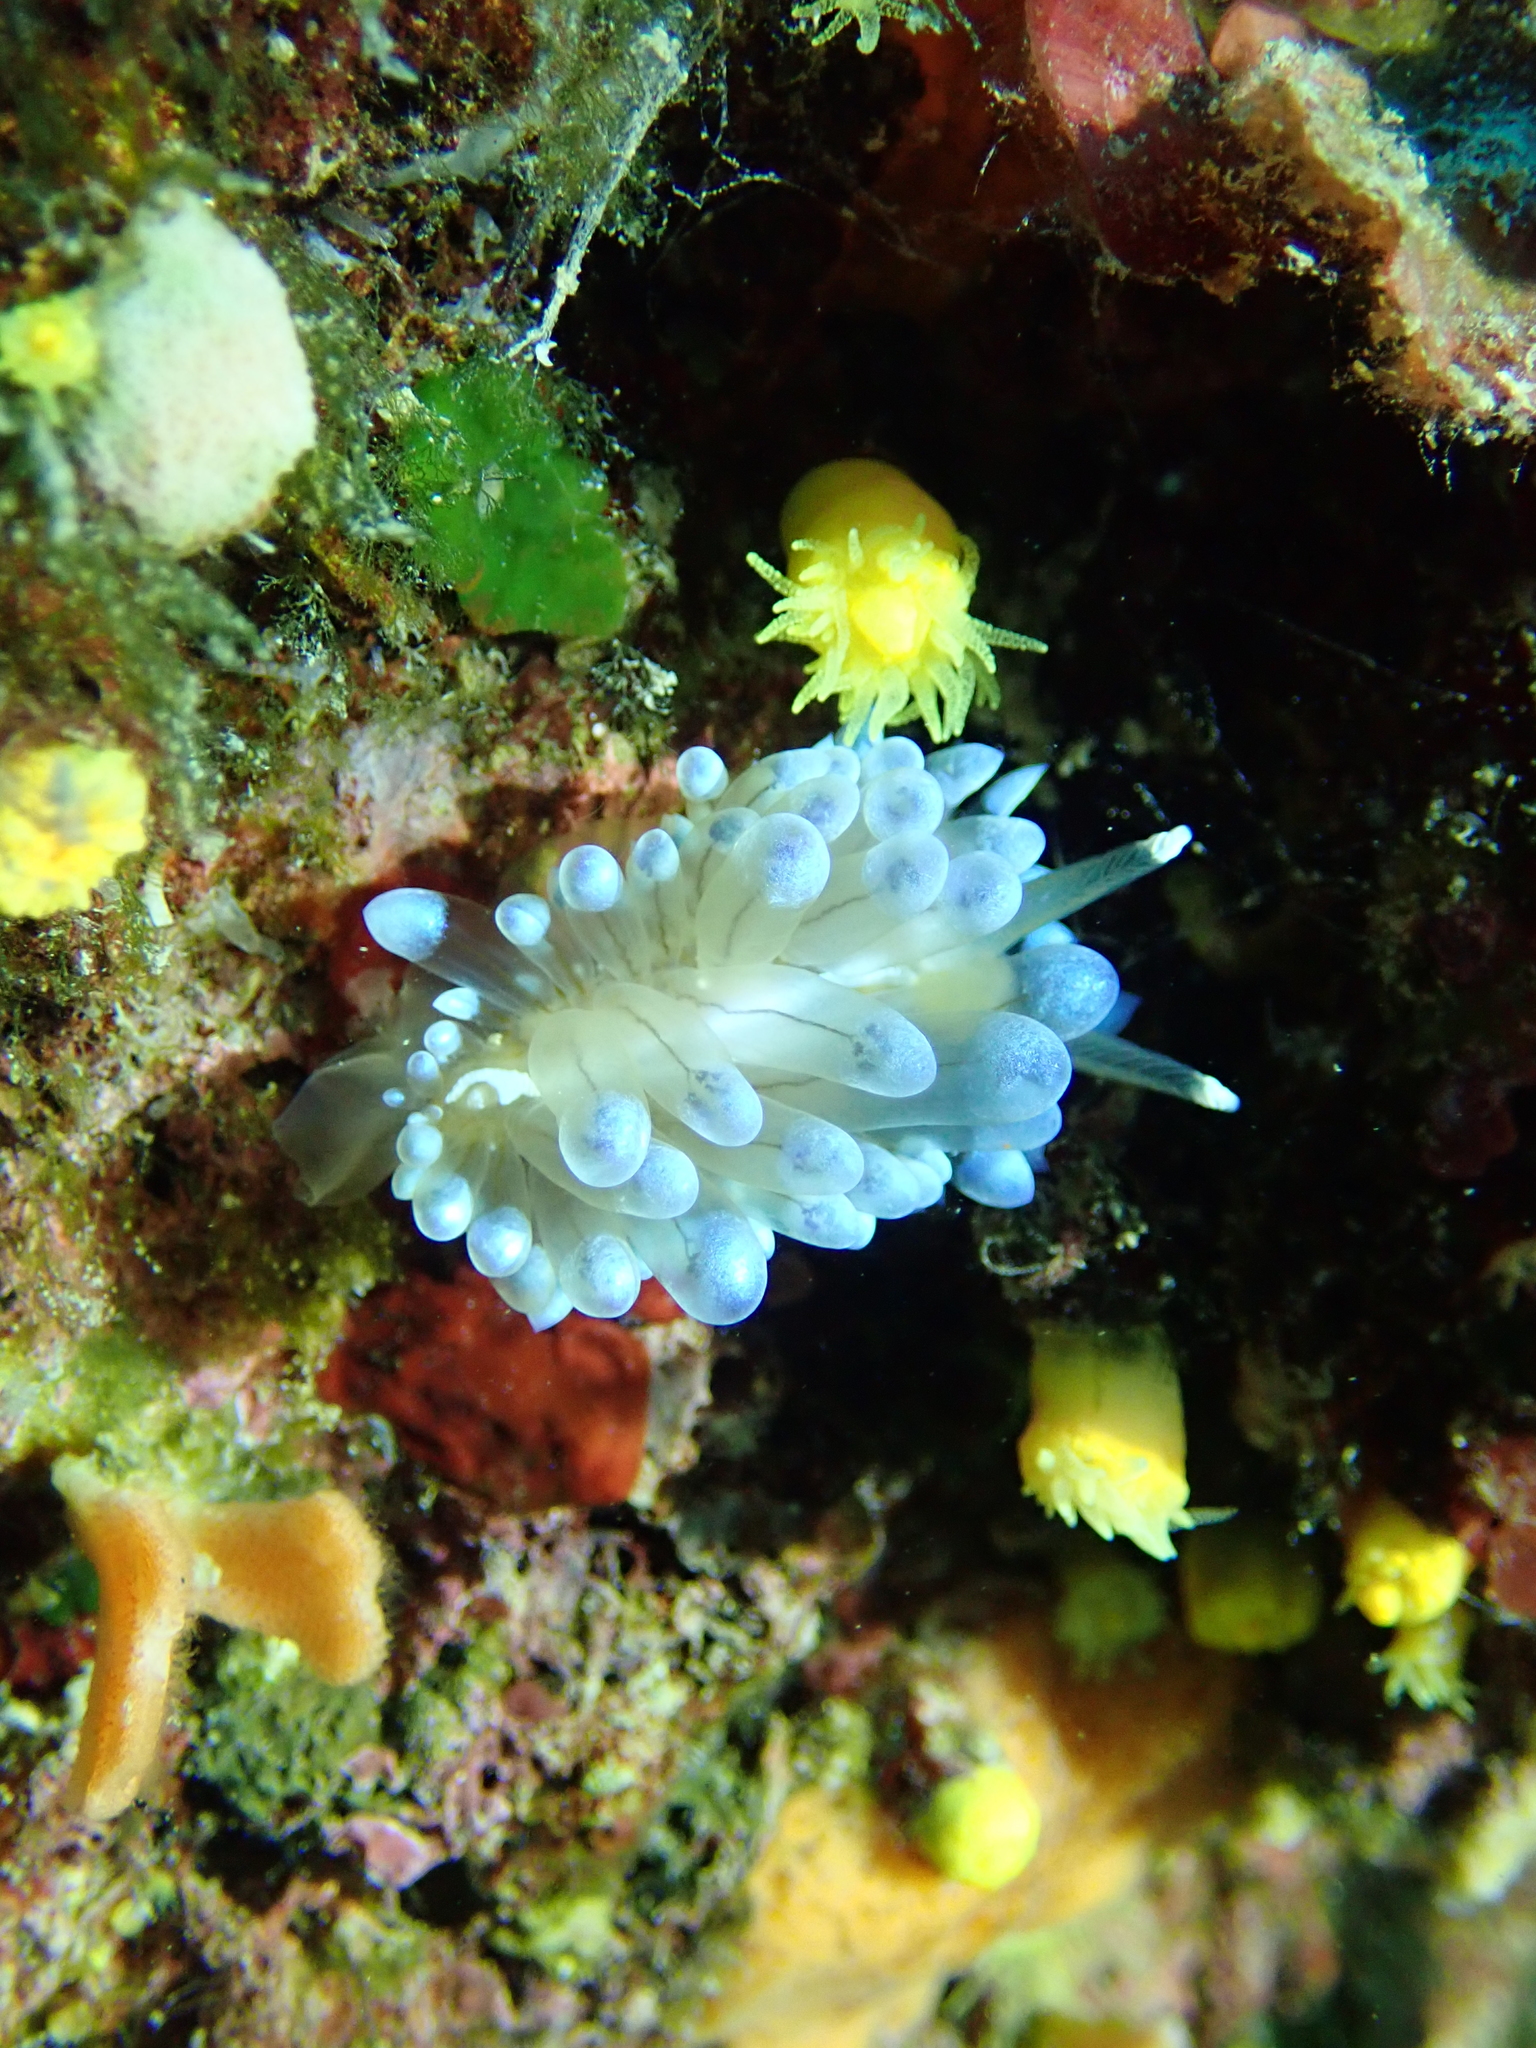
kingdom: Animalia
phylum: Mollusca
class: Gastropoda
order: Nudibranchia
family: Janolidae
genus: Antiopella
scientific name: Antiopella cristata
